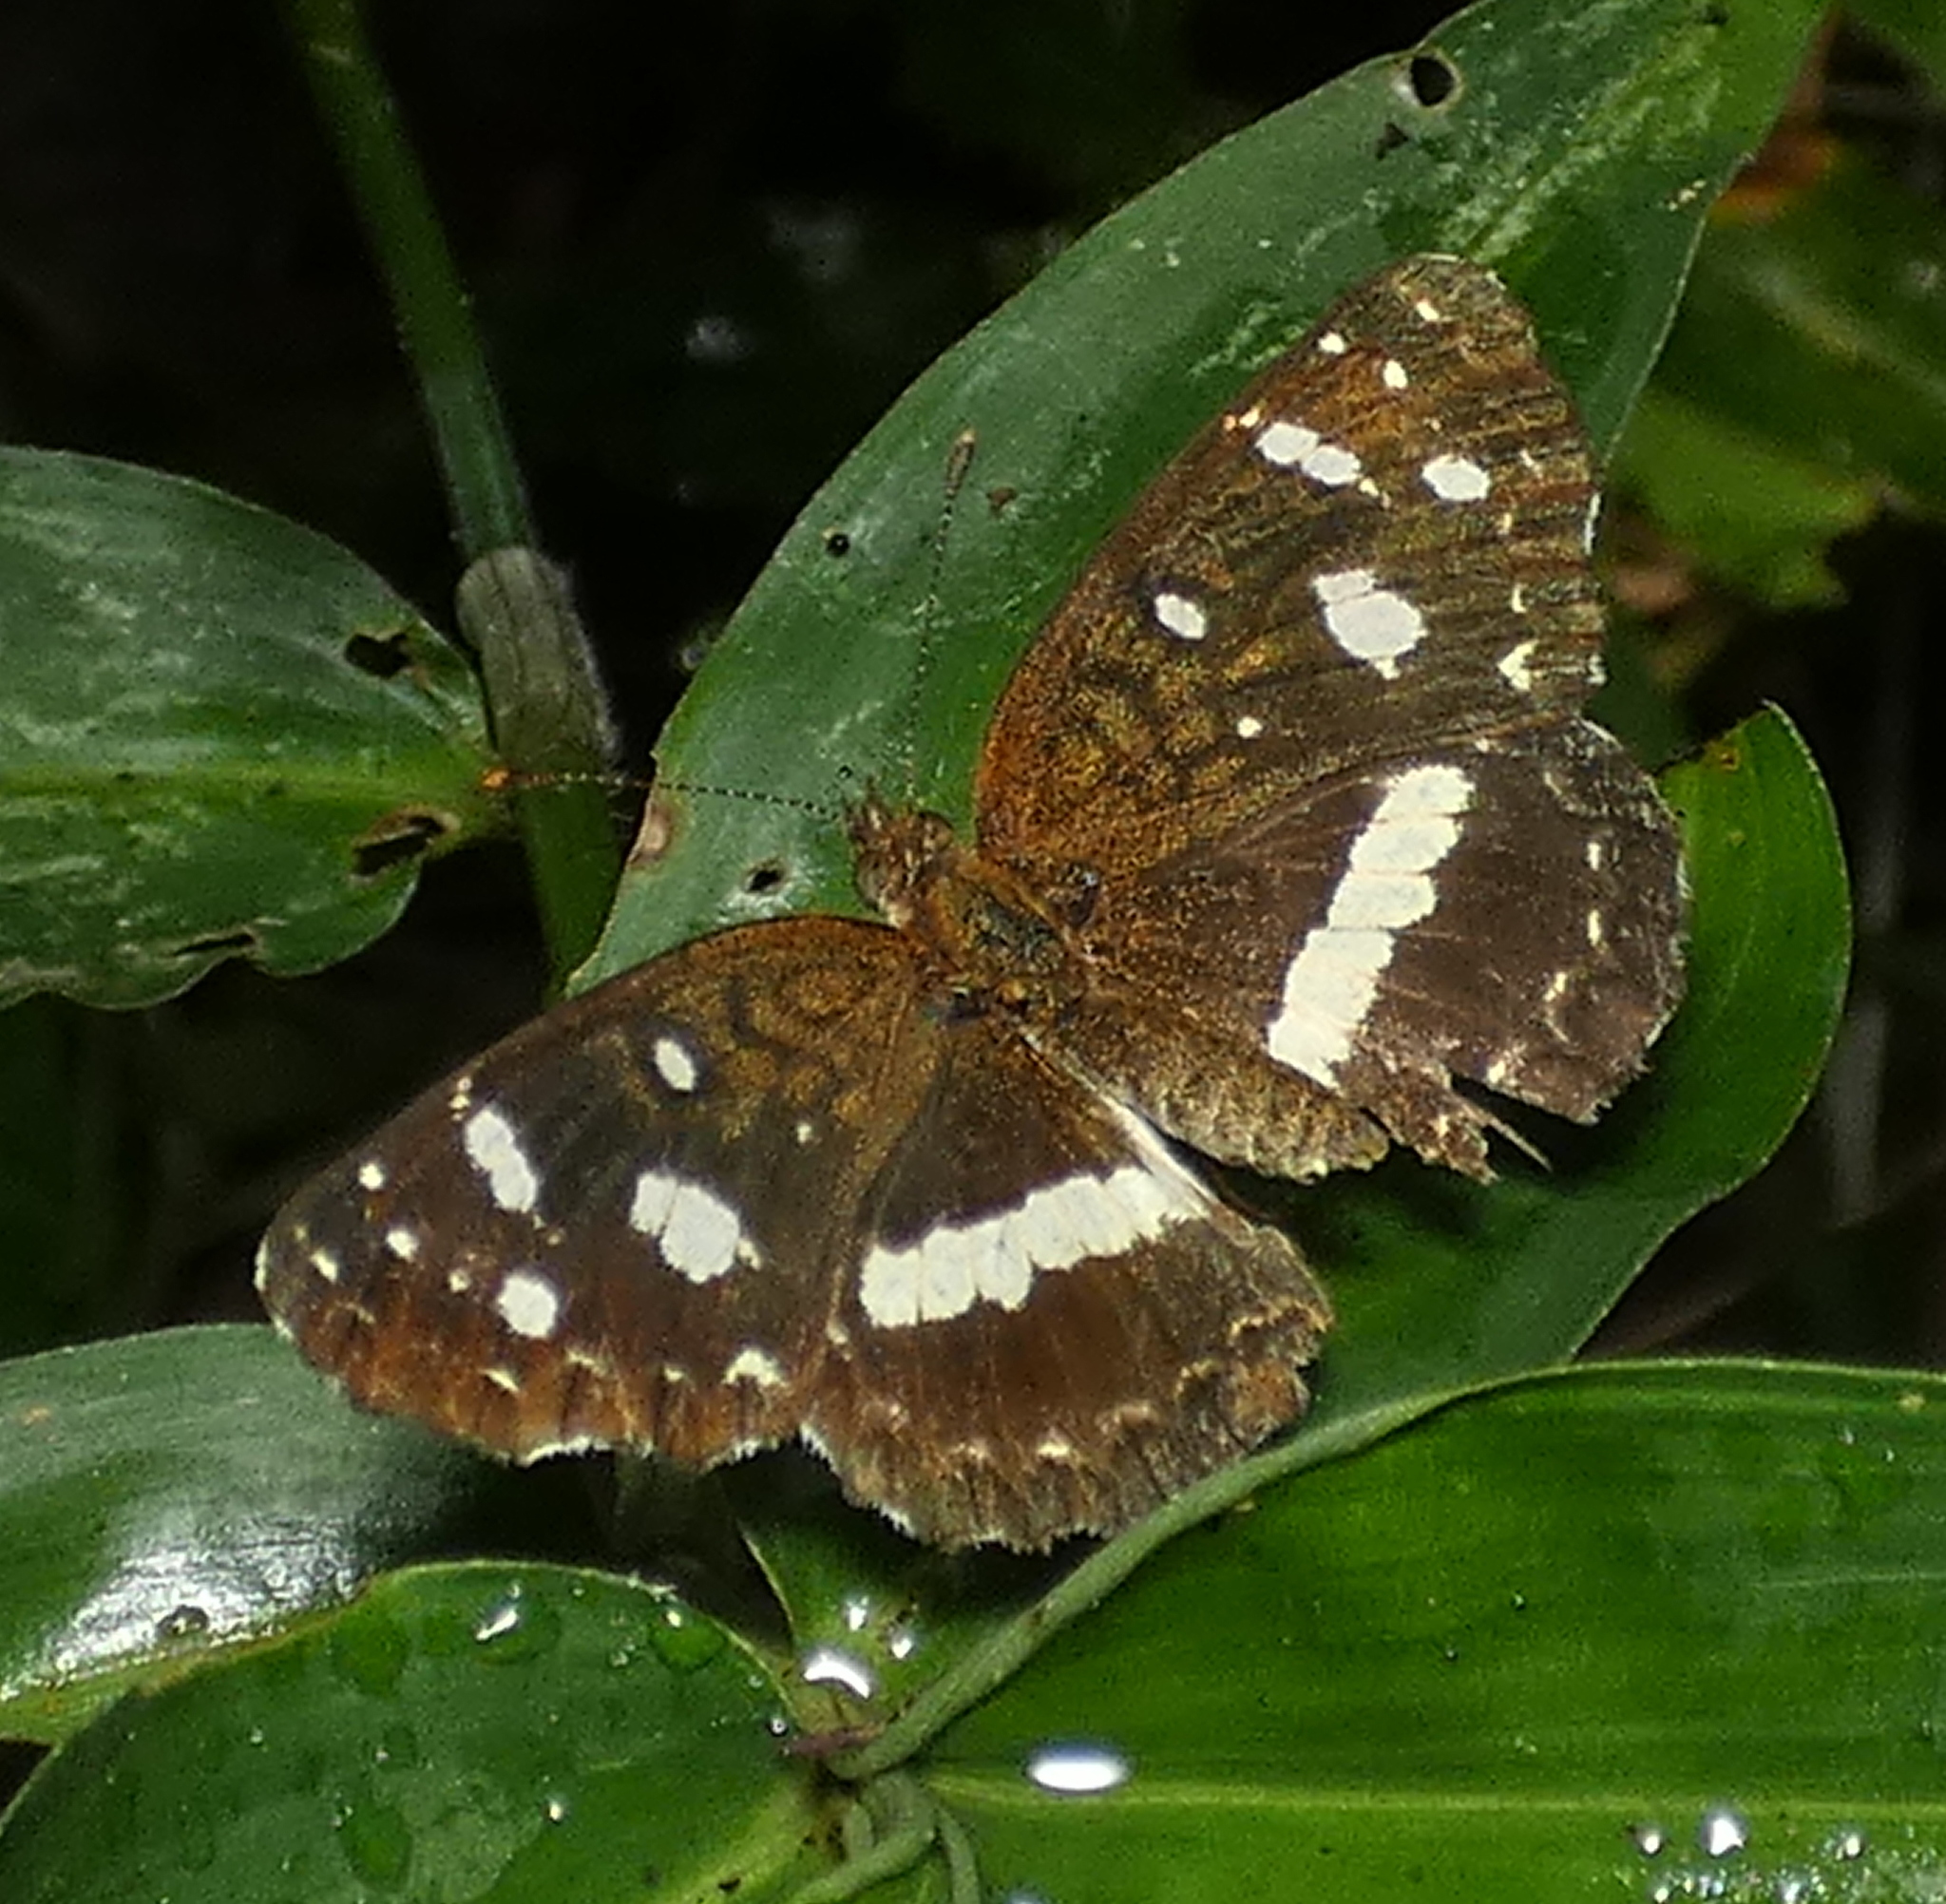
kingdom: Animalia
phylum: Arthropoda
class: Insecta
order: Lepidoptera
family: Nymphalidae
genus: Ortilia
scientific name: Ortilia ithra
